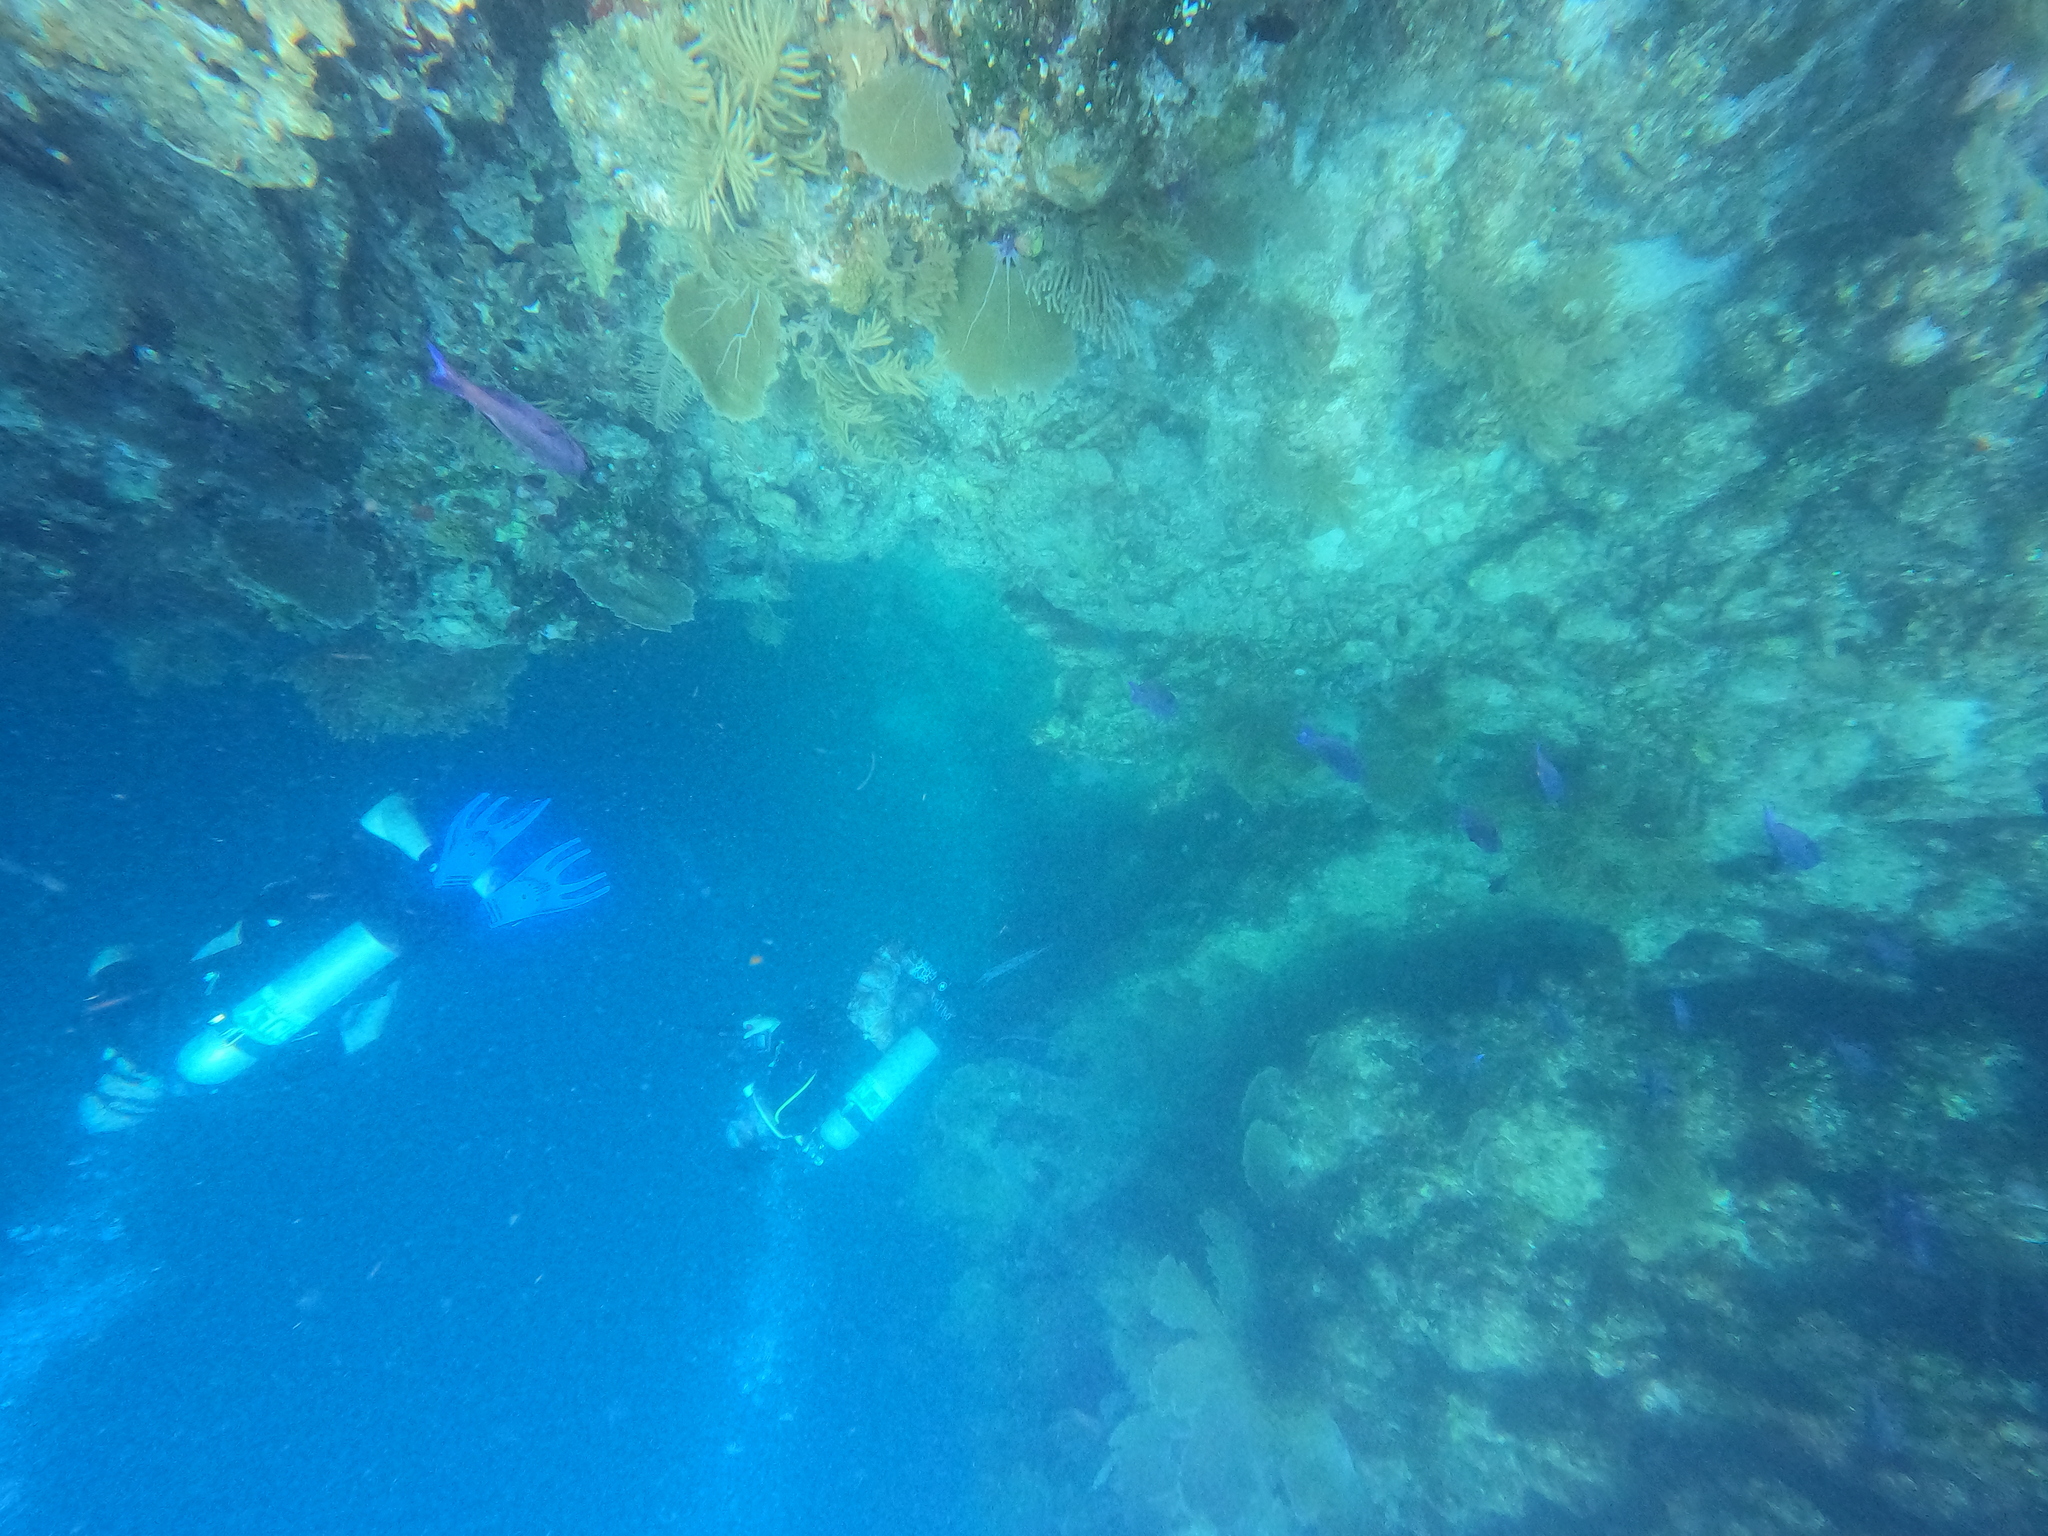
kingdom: Animalia
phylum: Chordata
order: Perciformes
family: Labridae
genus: Bodianus
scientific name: Bodianus
